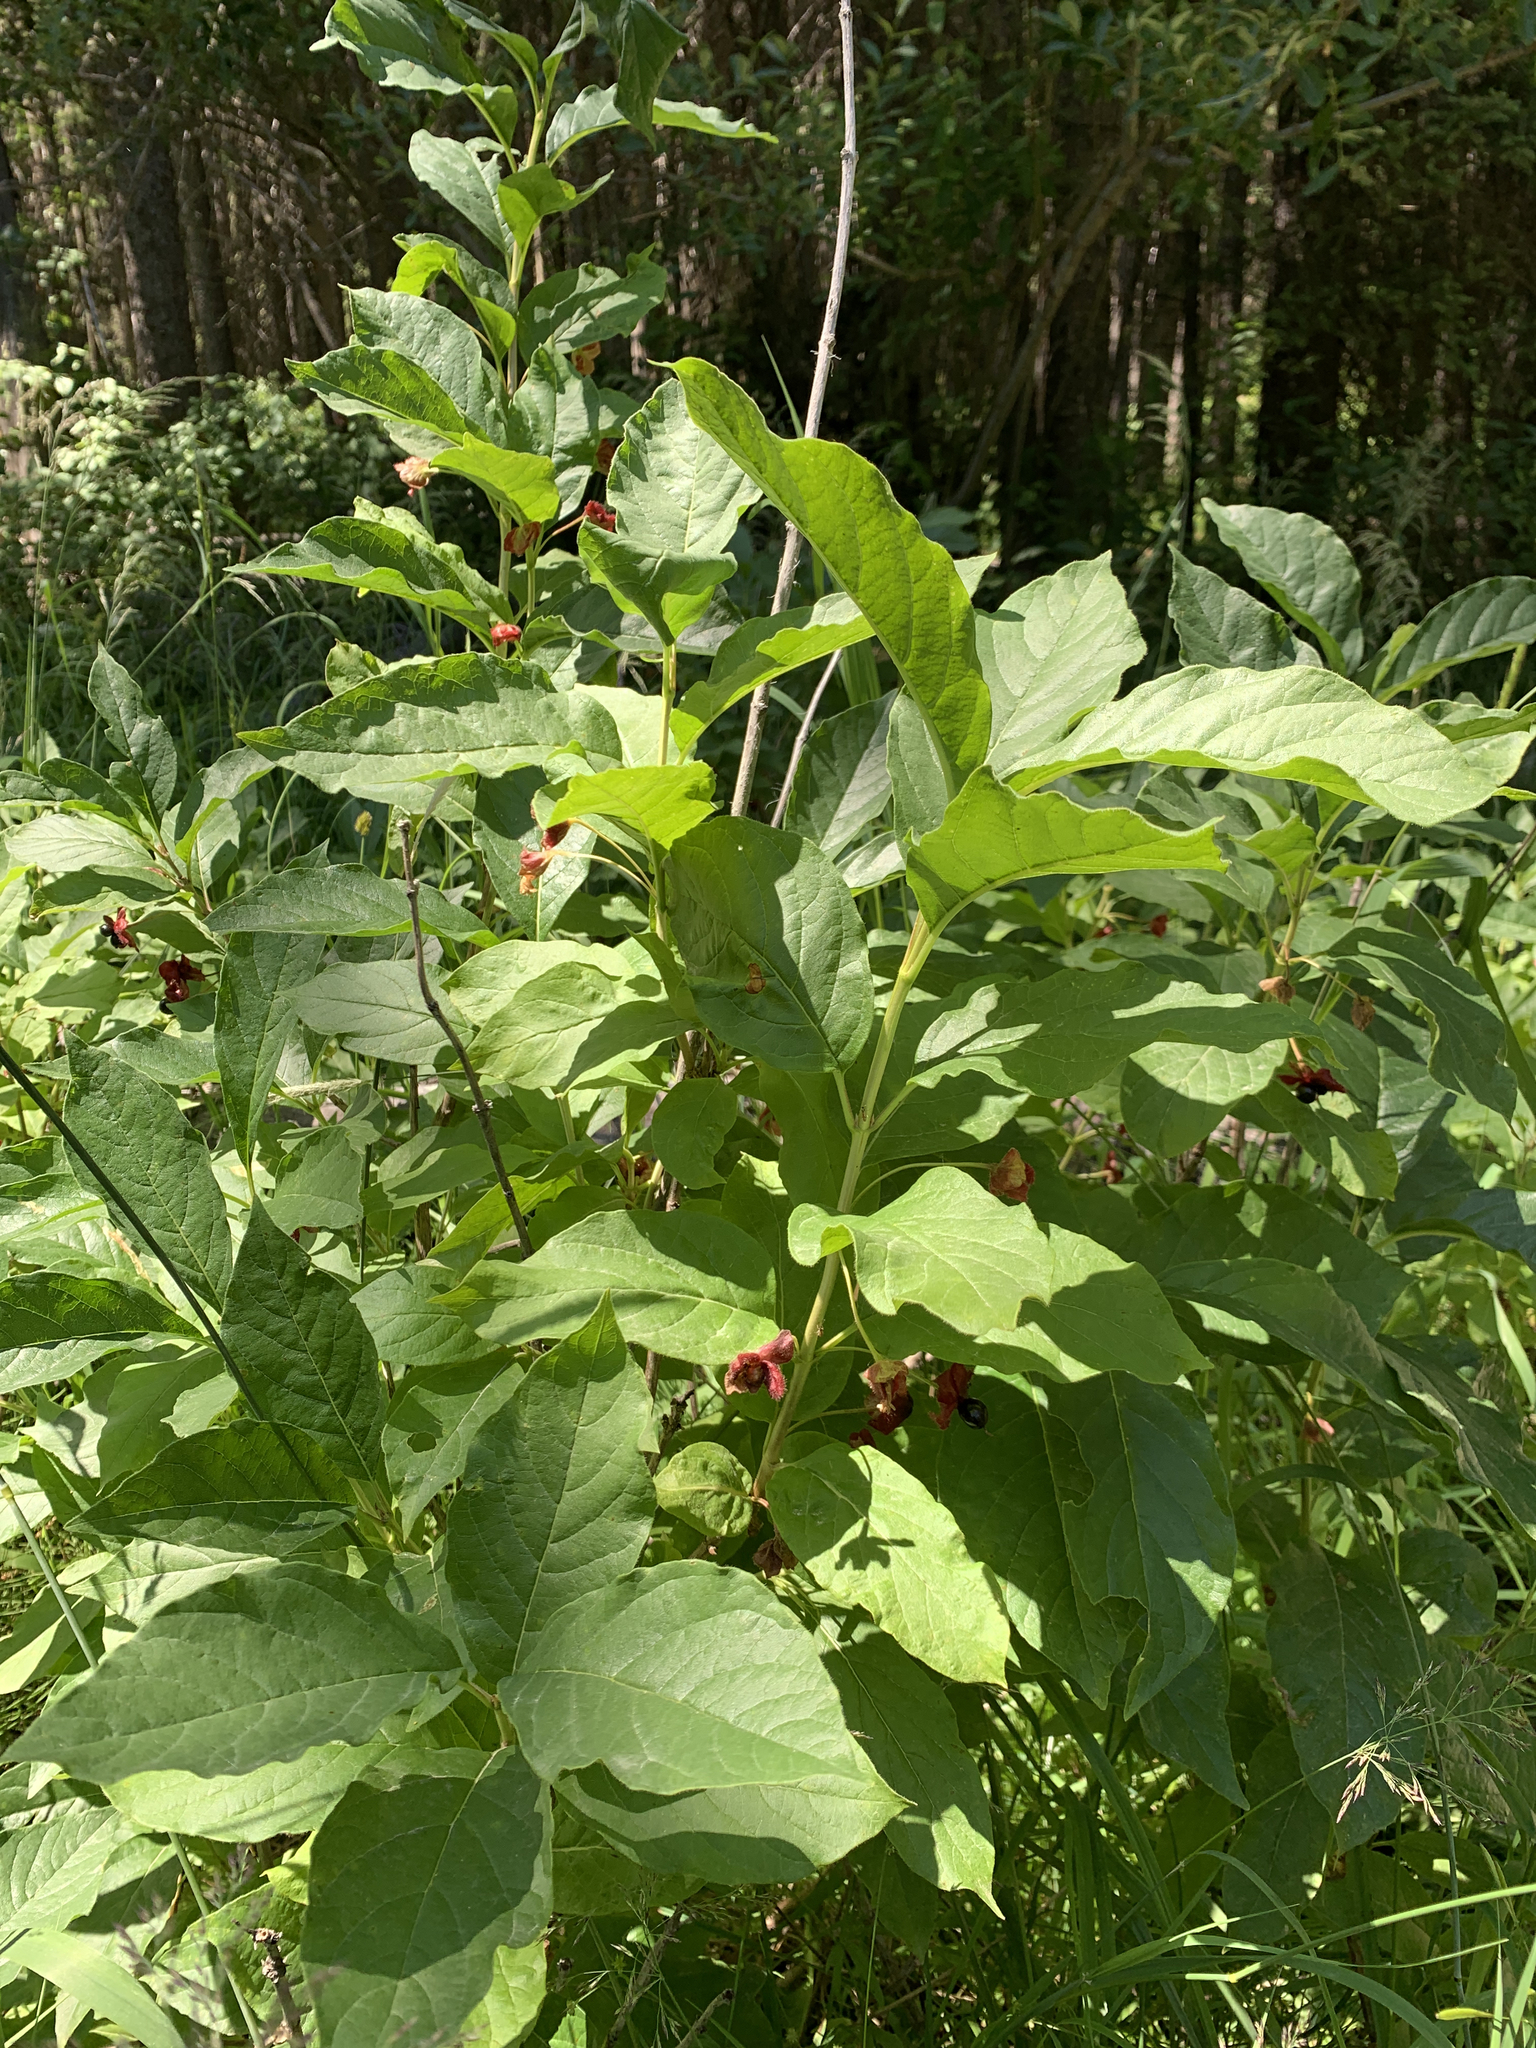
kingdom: Plantae
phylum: Tracheophyta
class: Magnoliopsida
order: Dipsacales
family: Caprifoliaceae
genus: Lonicera
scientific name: Lonicera involucrata
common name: Californian honeysuckle
